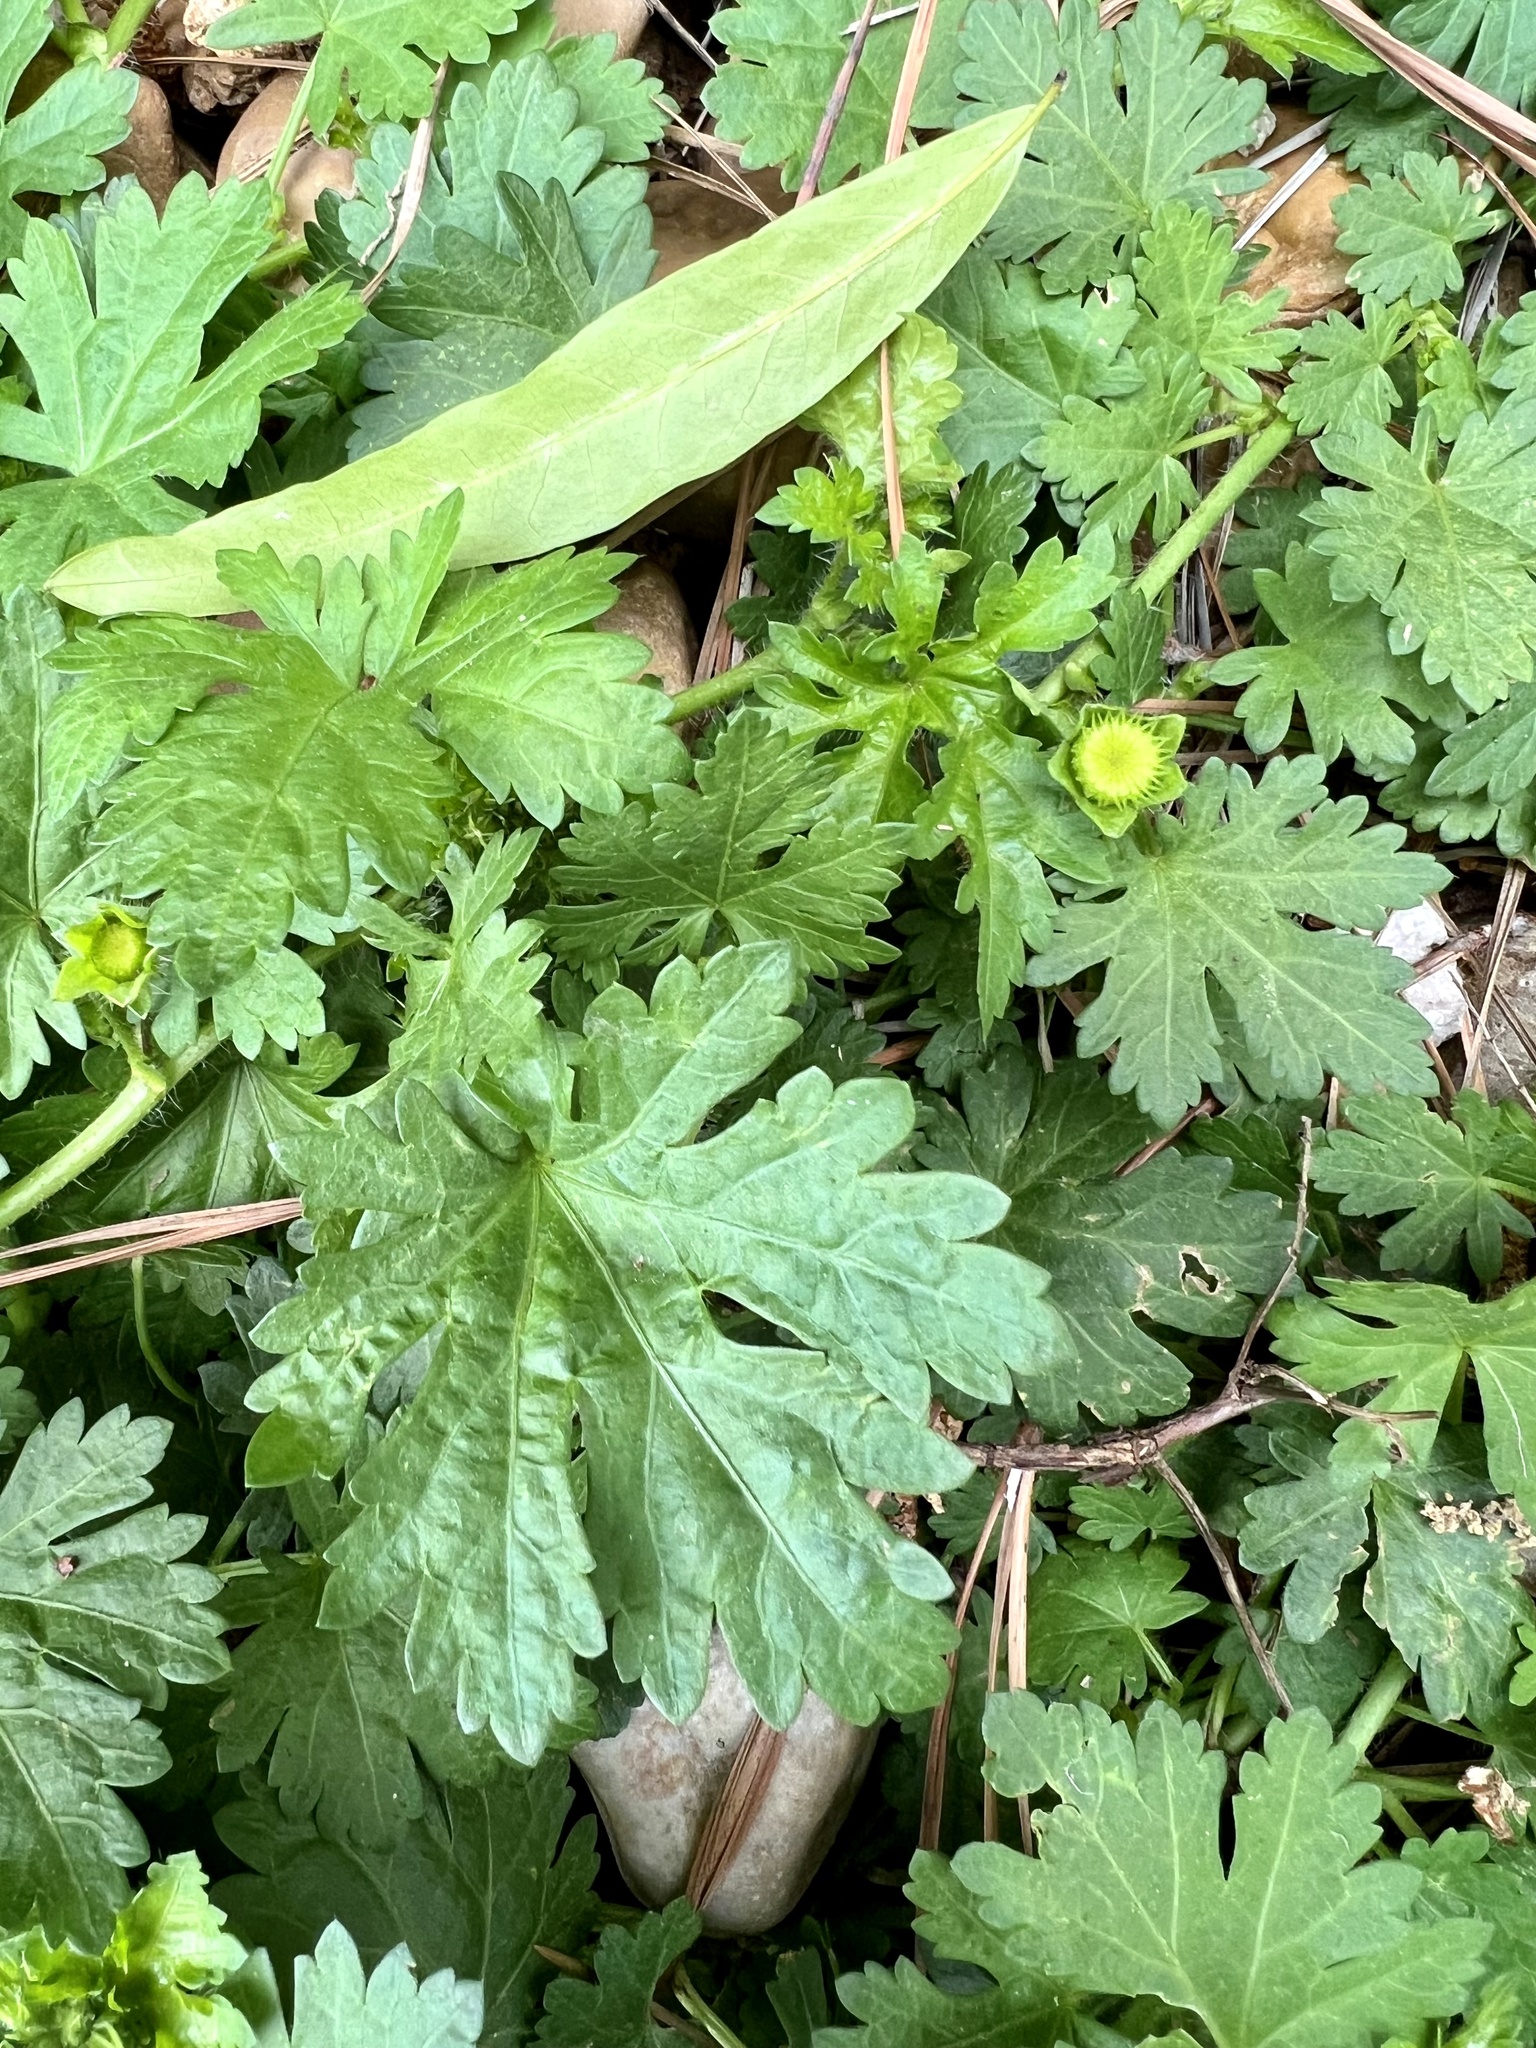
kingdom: Plantae
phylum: Tracheophyta
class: Magnoliopsida
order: Malvales
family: Malvaceae
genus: Modiola
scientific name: Modiola caroliniana
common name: Carolina bristlemallow
